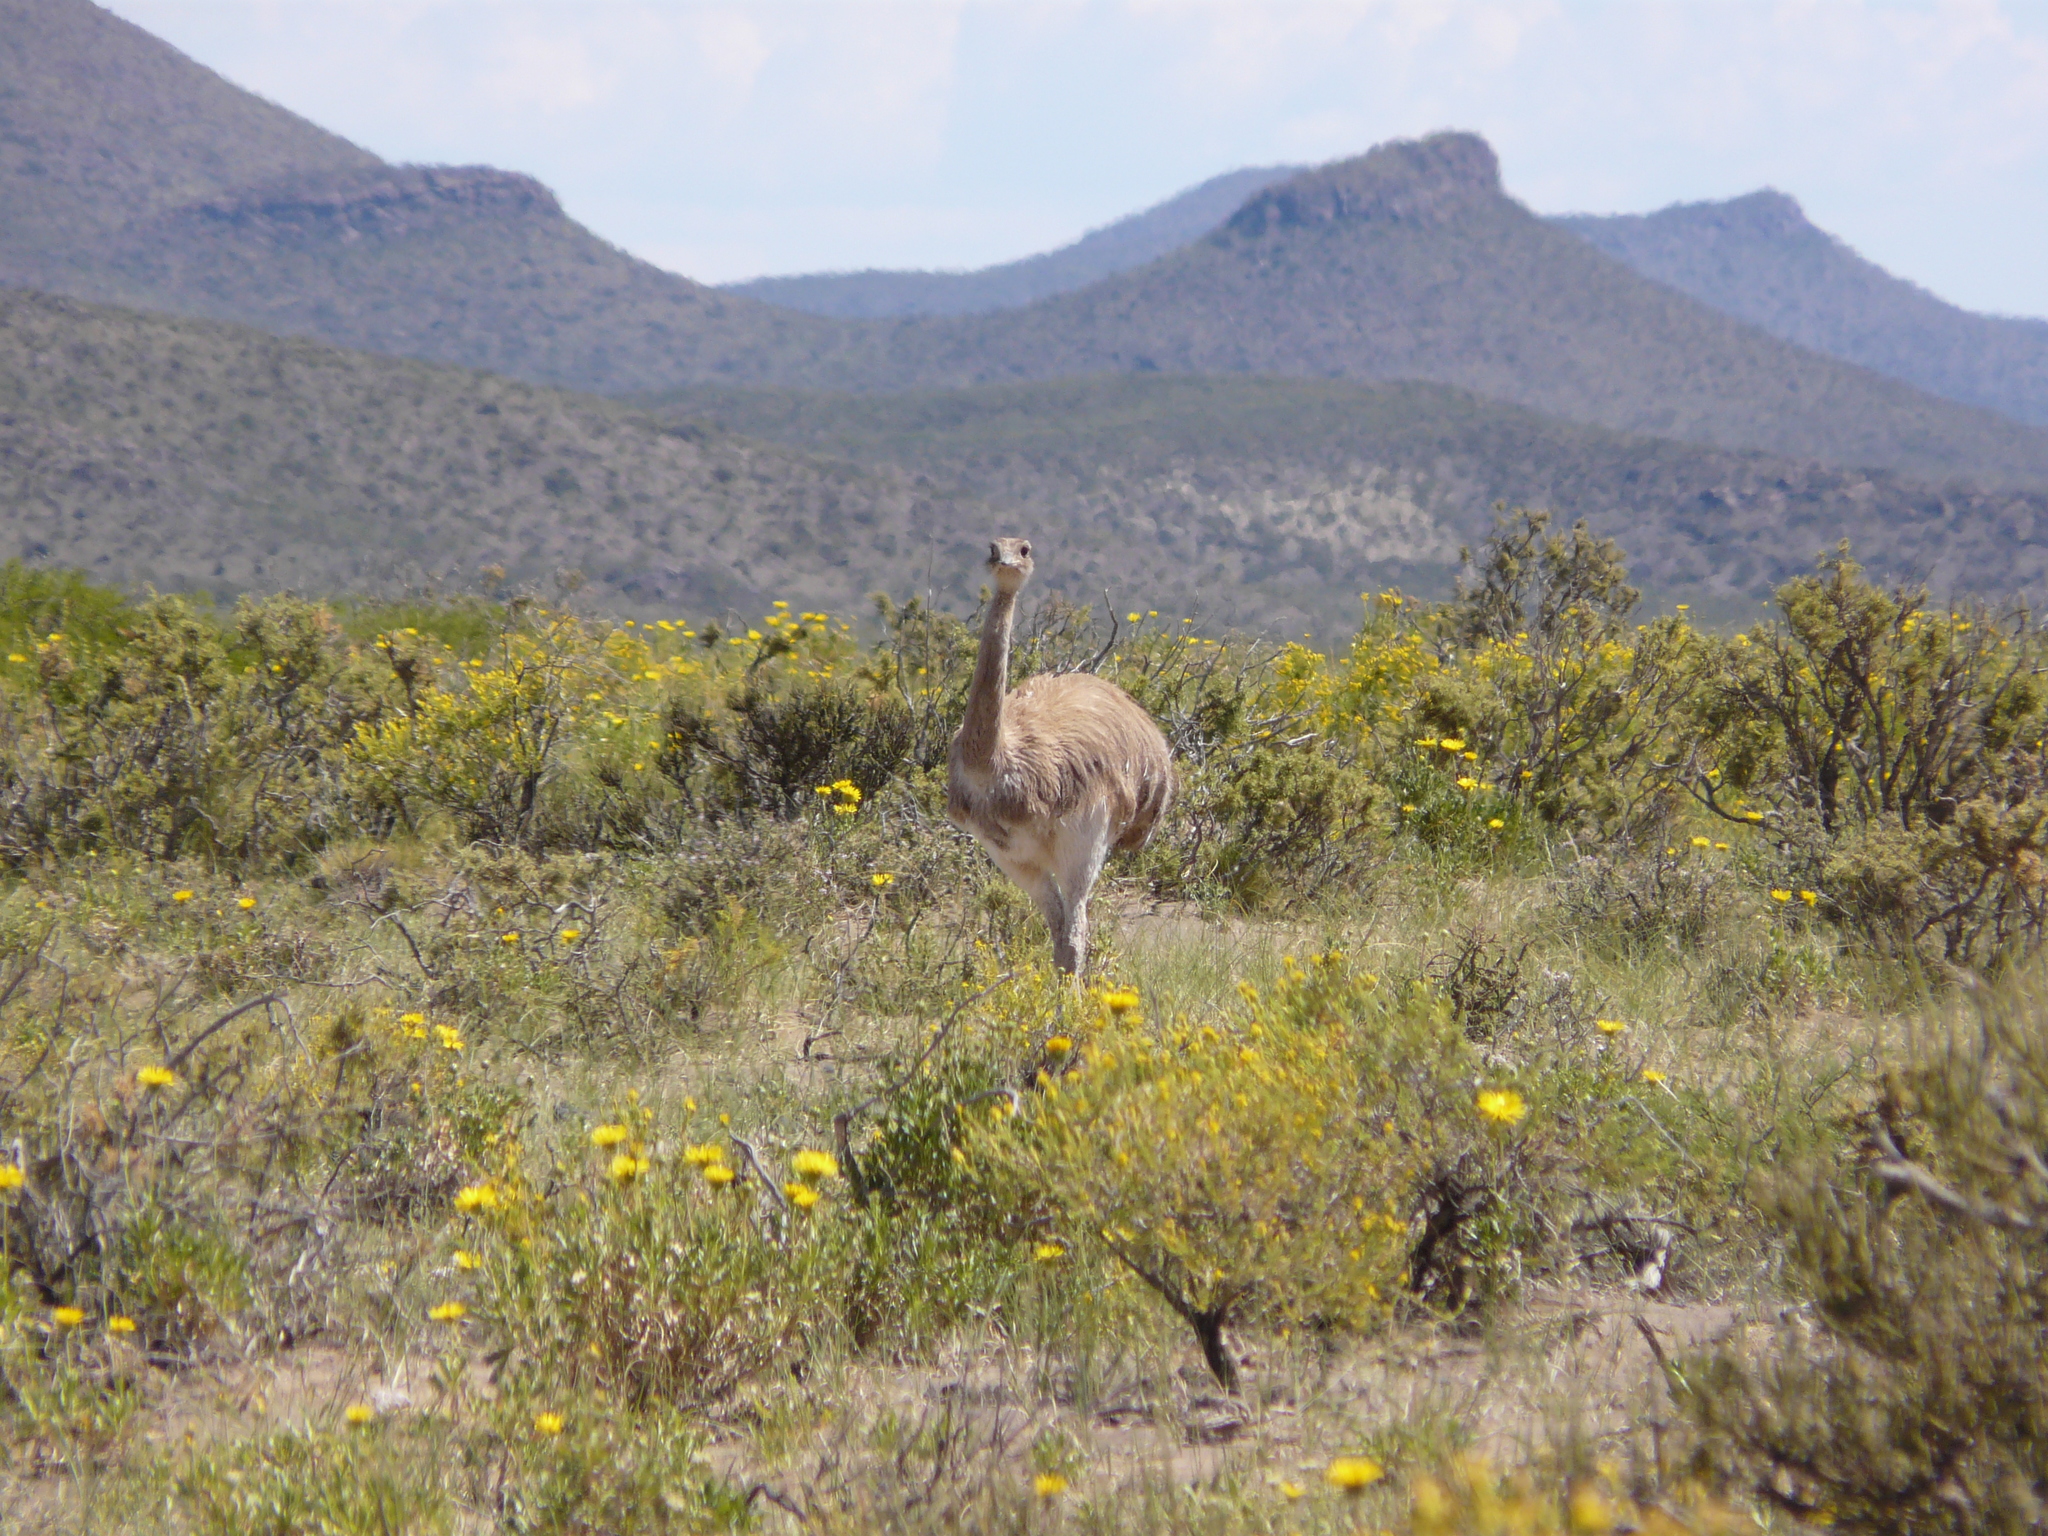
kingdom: Animalia
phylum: Chordata
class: Aves
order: Rheiformes
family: Rheidae
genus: Rhea
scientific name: Rhea pennata
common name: Lesser rhea
